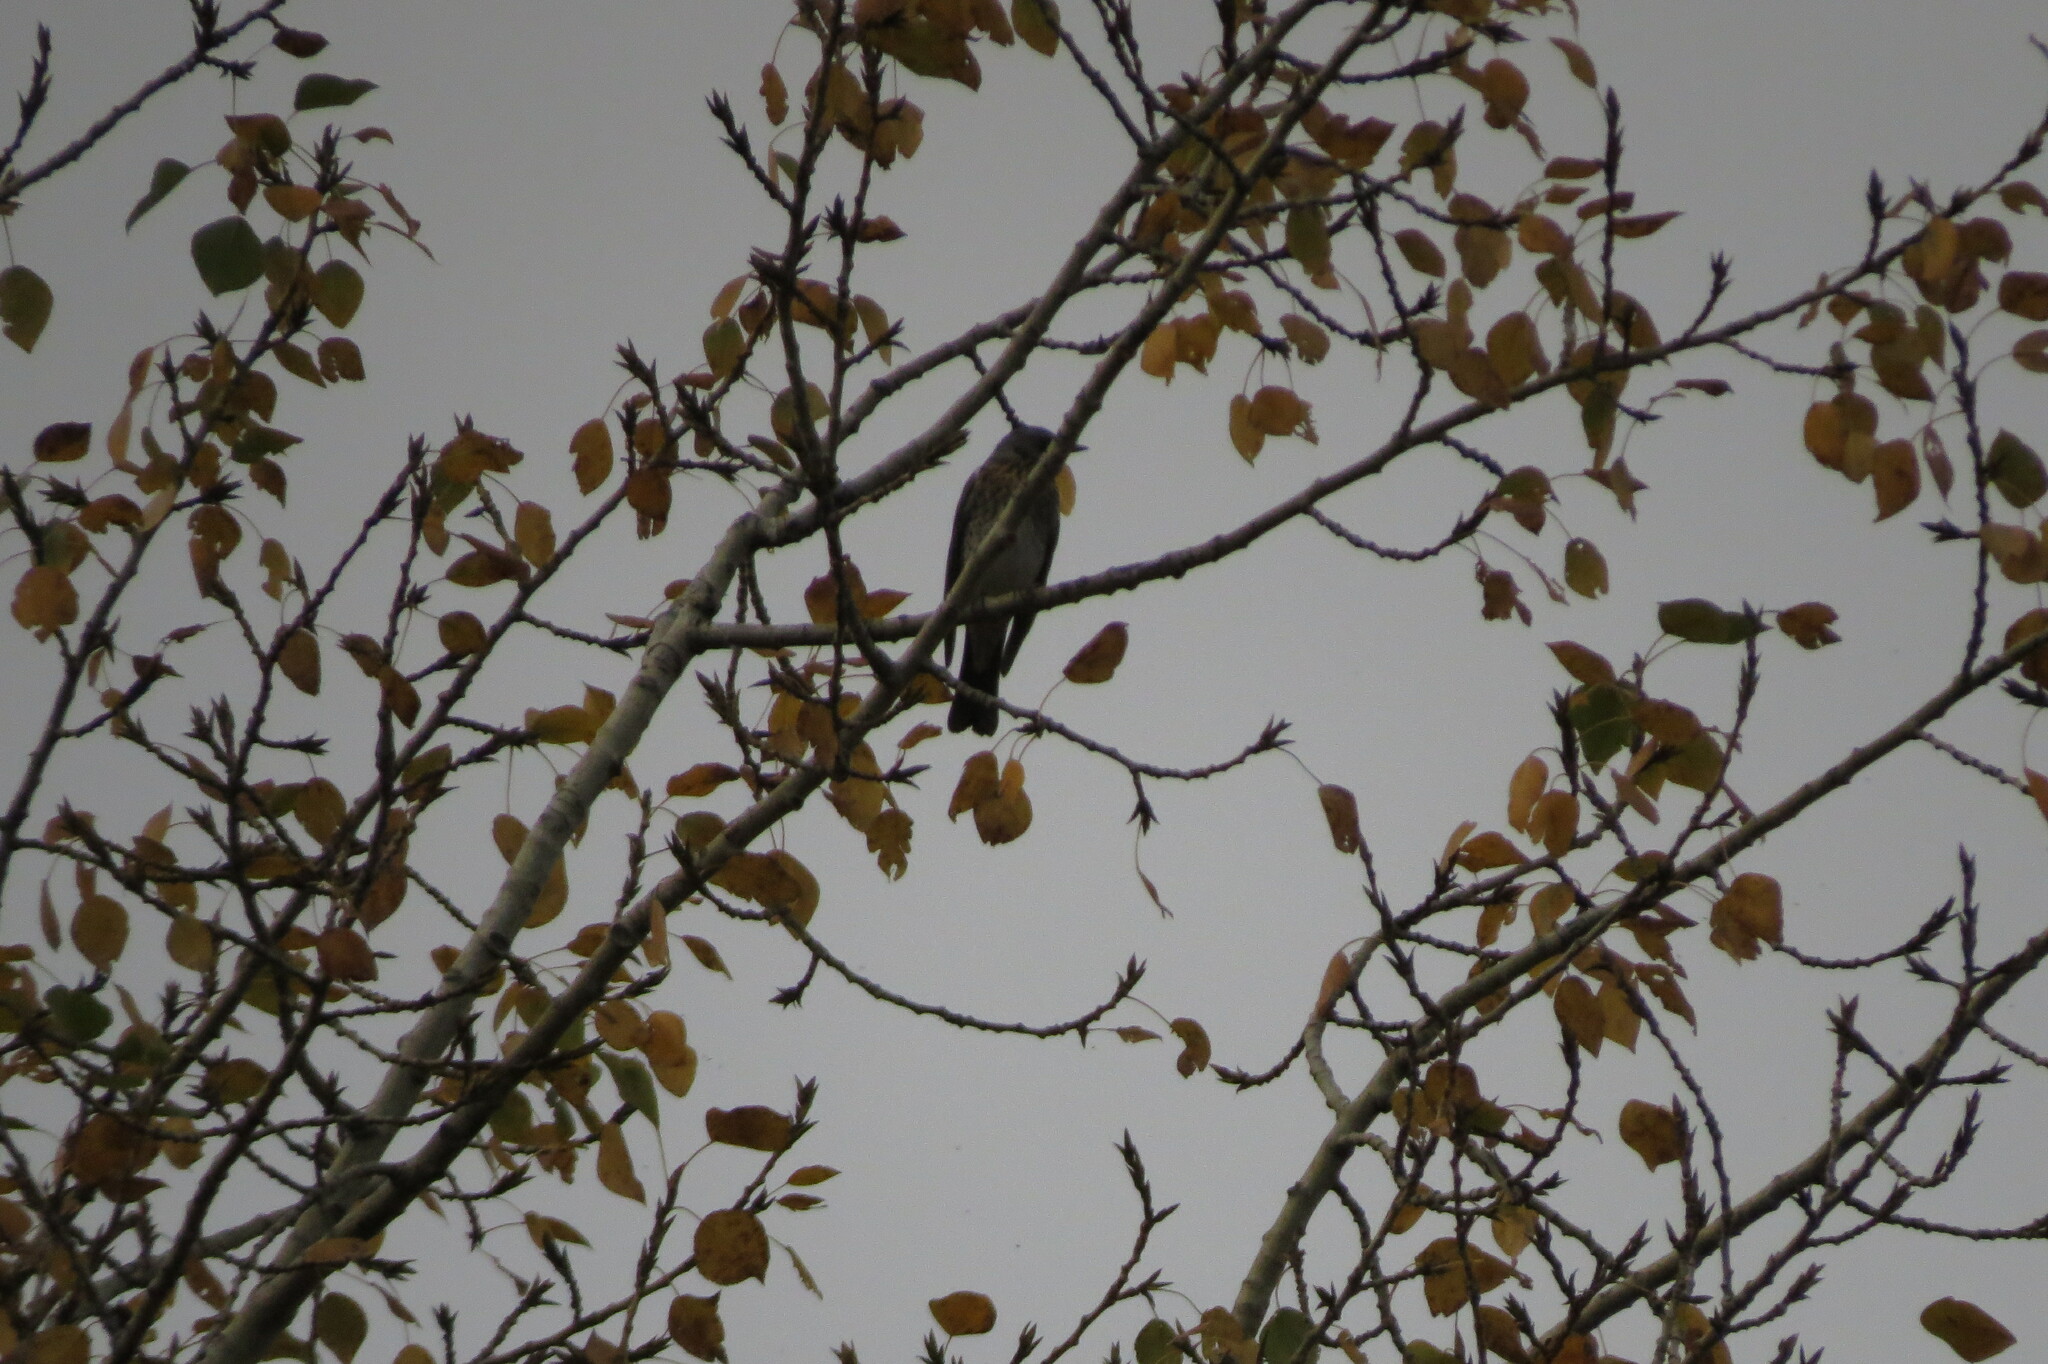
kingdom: Animalia
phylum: Chordata
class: Aves
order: Passeriformes
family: Turdidae
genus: Turdus
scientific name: Turdus pilaris
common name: Fieldfare
